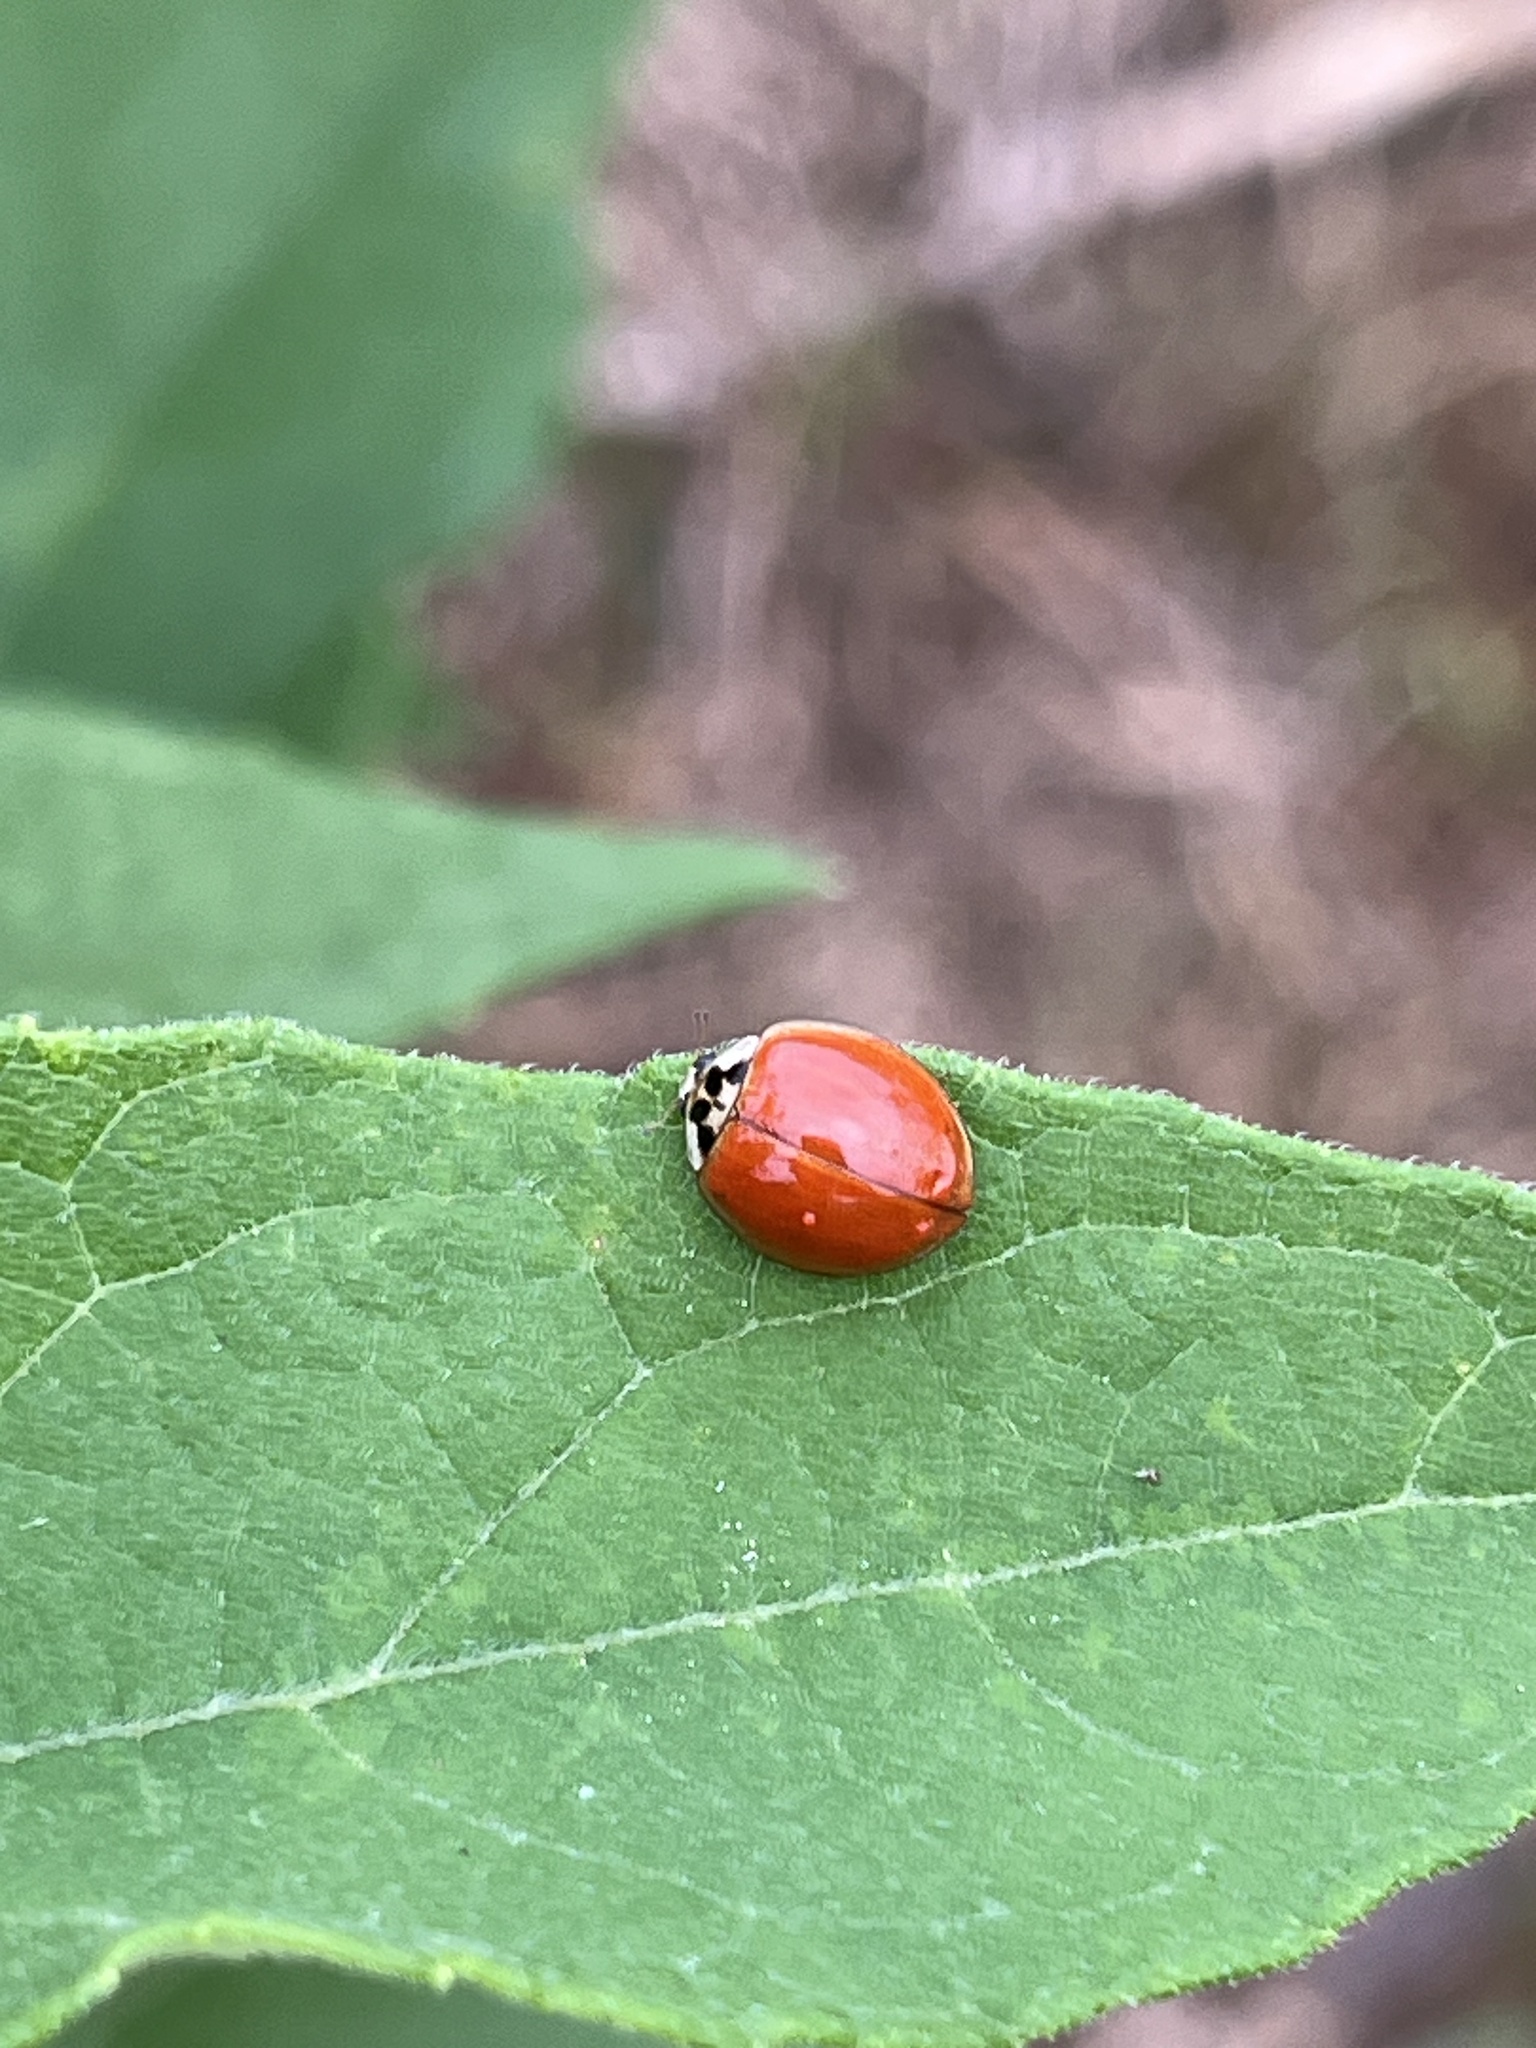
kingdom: Animalia
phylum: Arthropoda
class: Insecta
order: Coleoptera
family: Coccinellidae
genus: Harmonia
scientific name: Harmonia axyridis
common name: Harlequin ladybird
